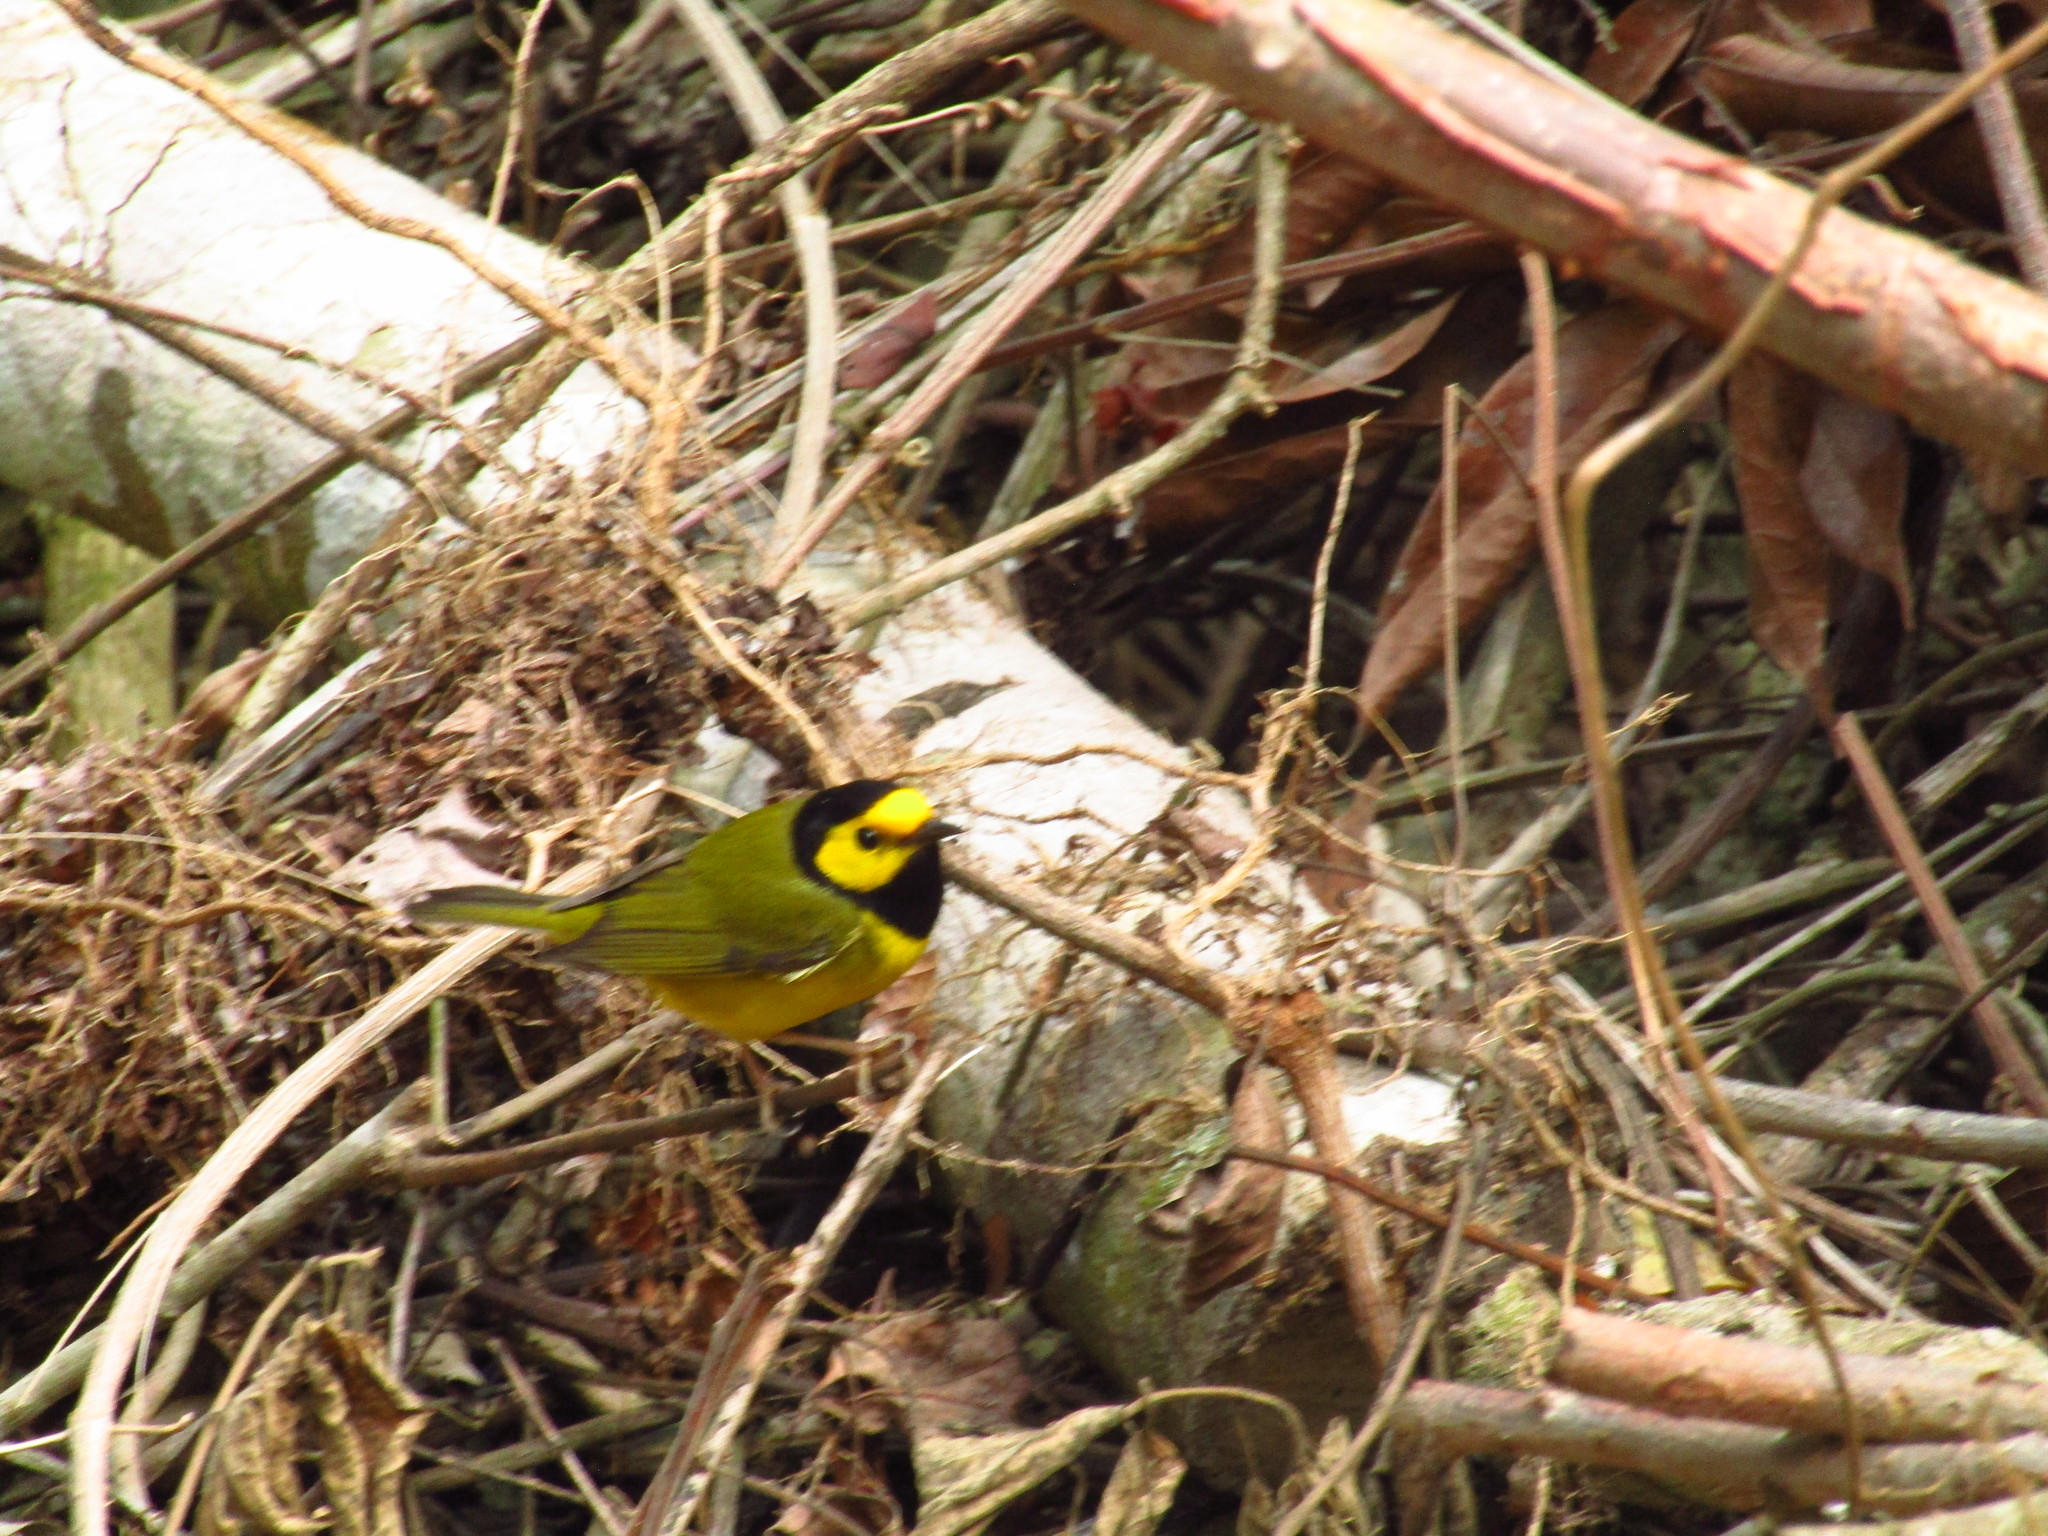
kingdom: Animalia
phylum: Chordata
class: Aves
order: Passeriformes
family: Parulidae
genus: Setophaga
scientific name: Setophaga citrina
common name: Hooded warbler
